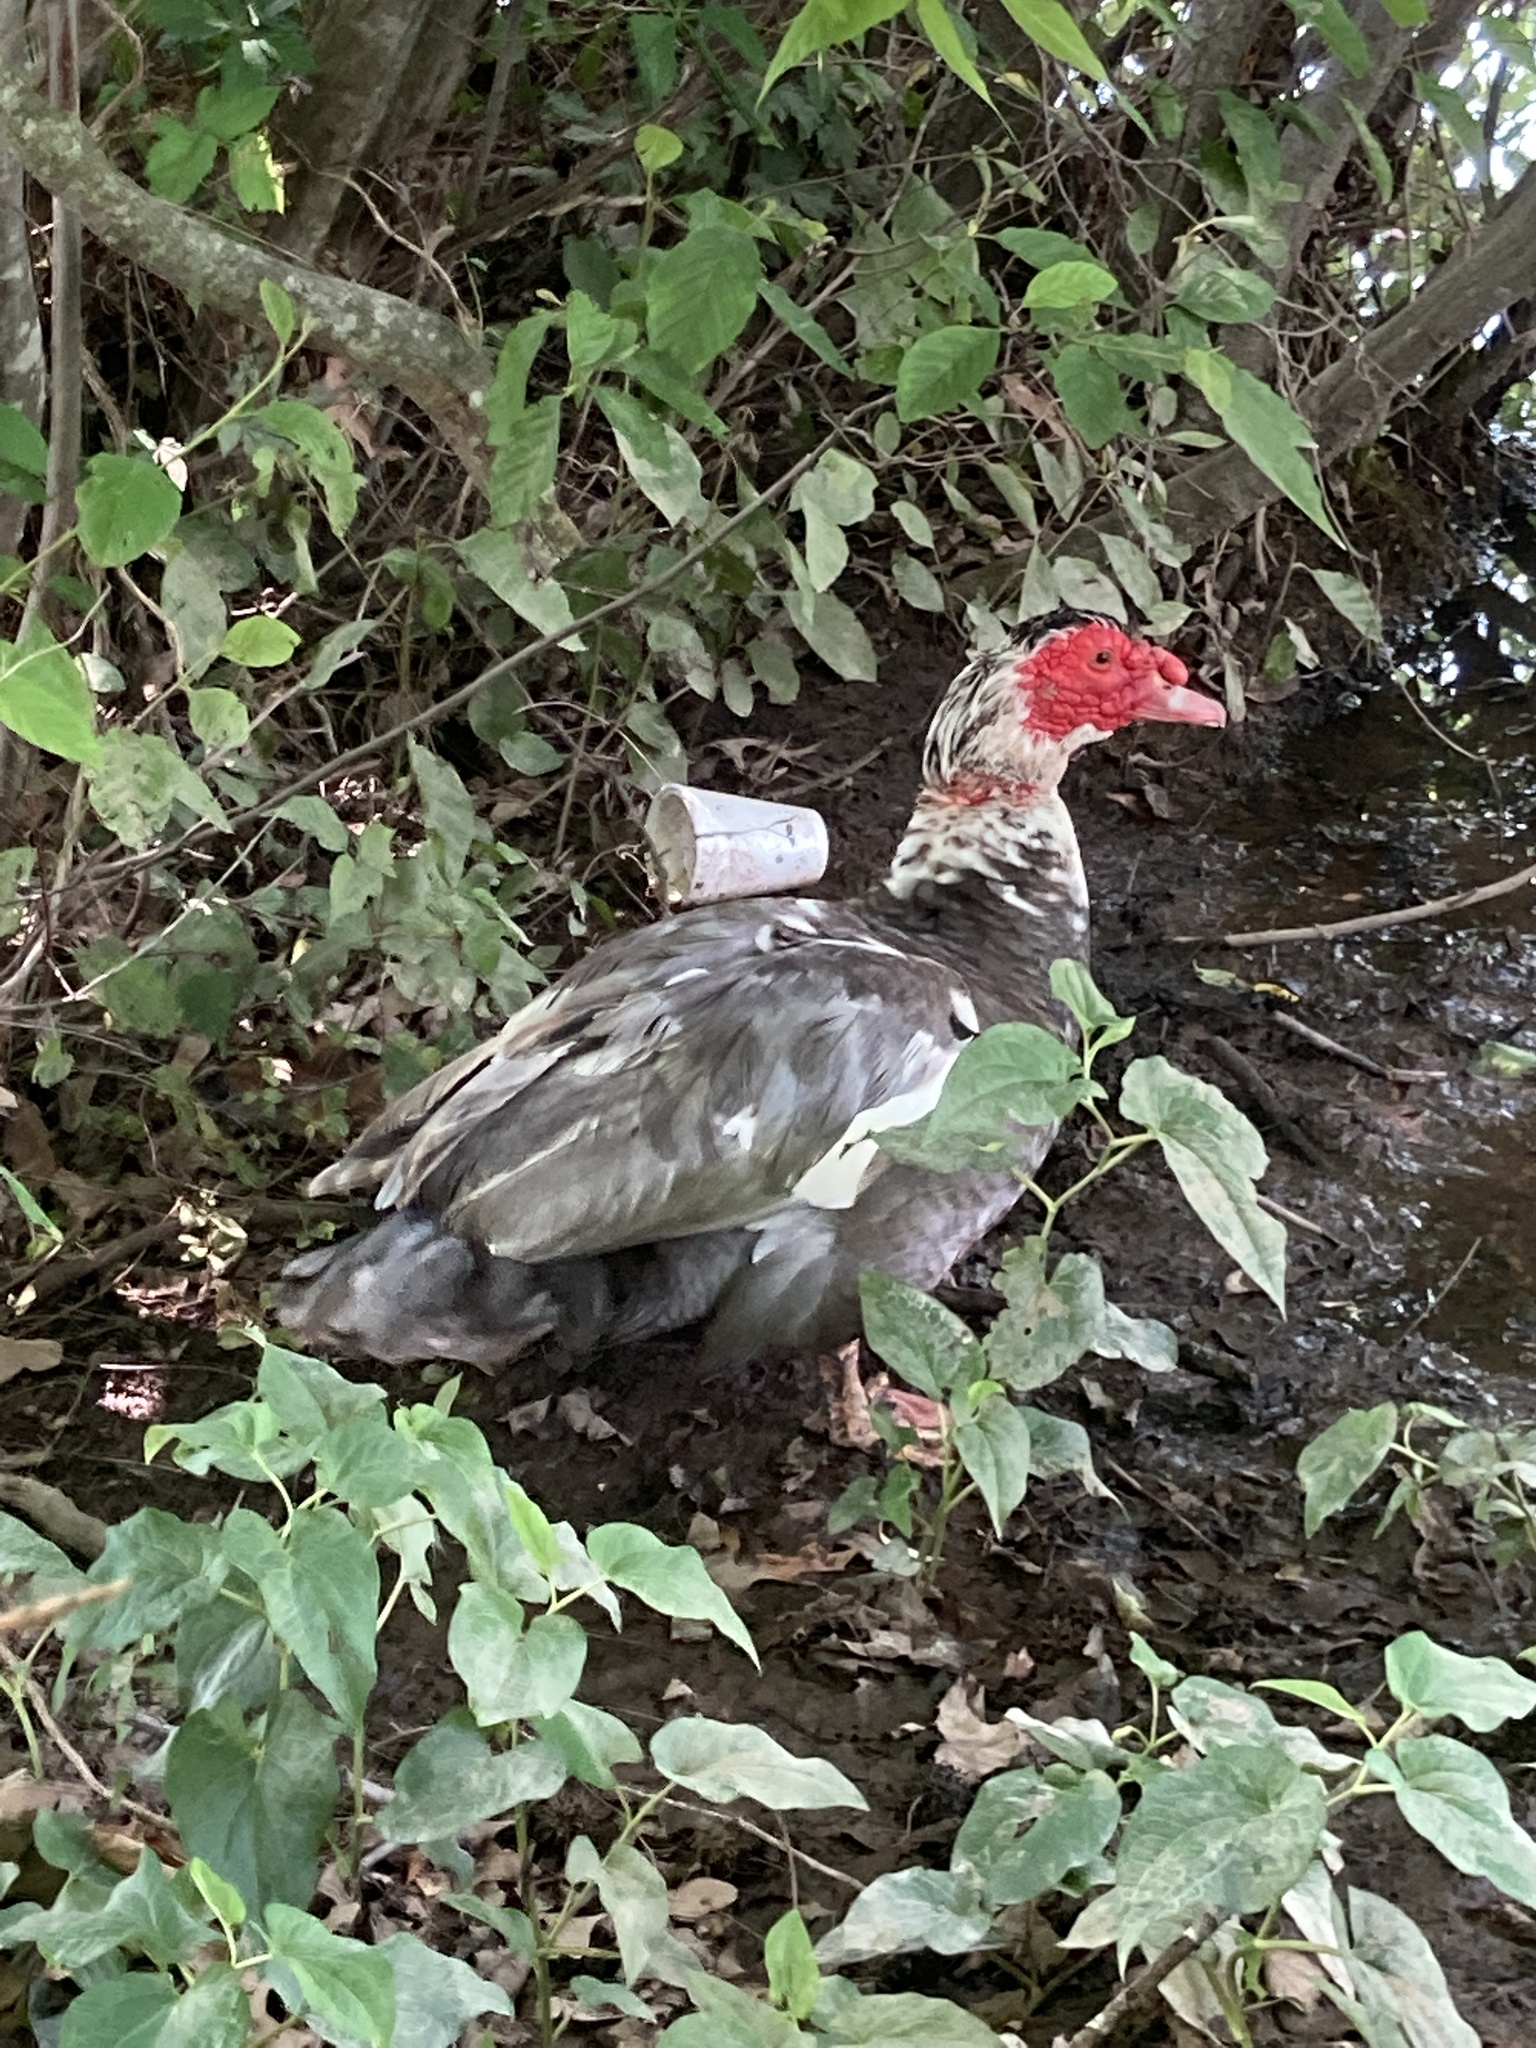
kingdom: Animalia
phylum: Chordata
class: Aves
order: Anseriformes
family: Anatidae
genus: Cairina
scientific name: Cairina moschata
